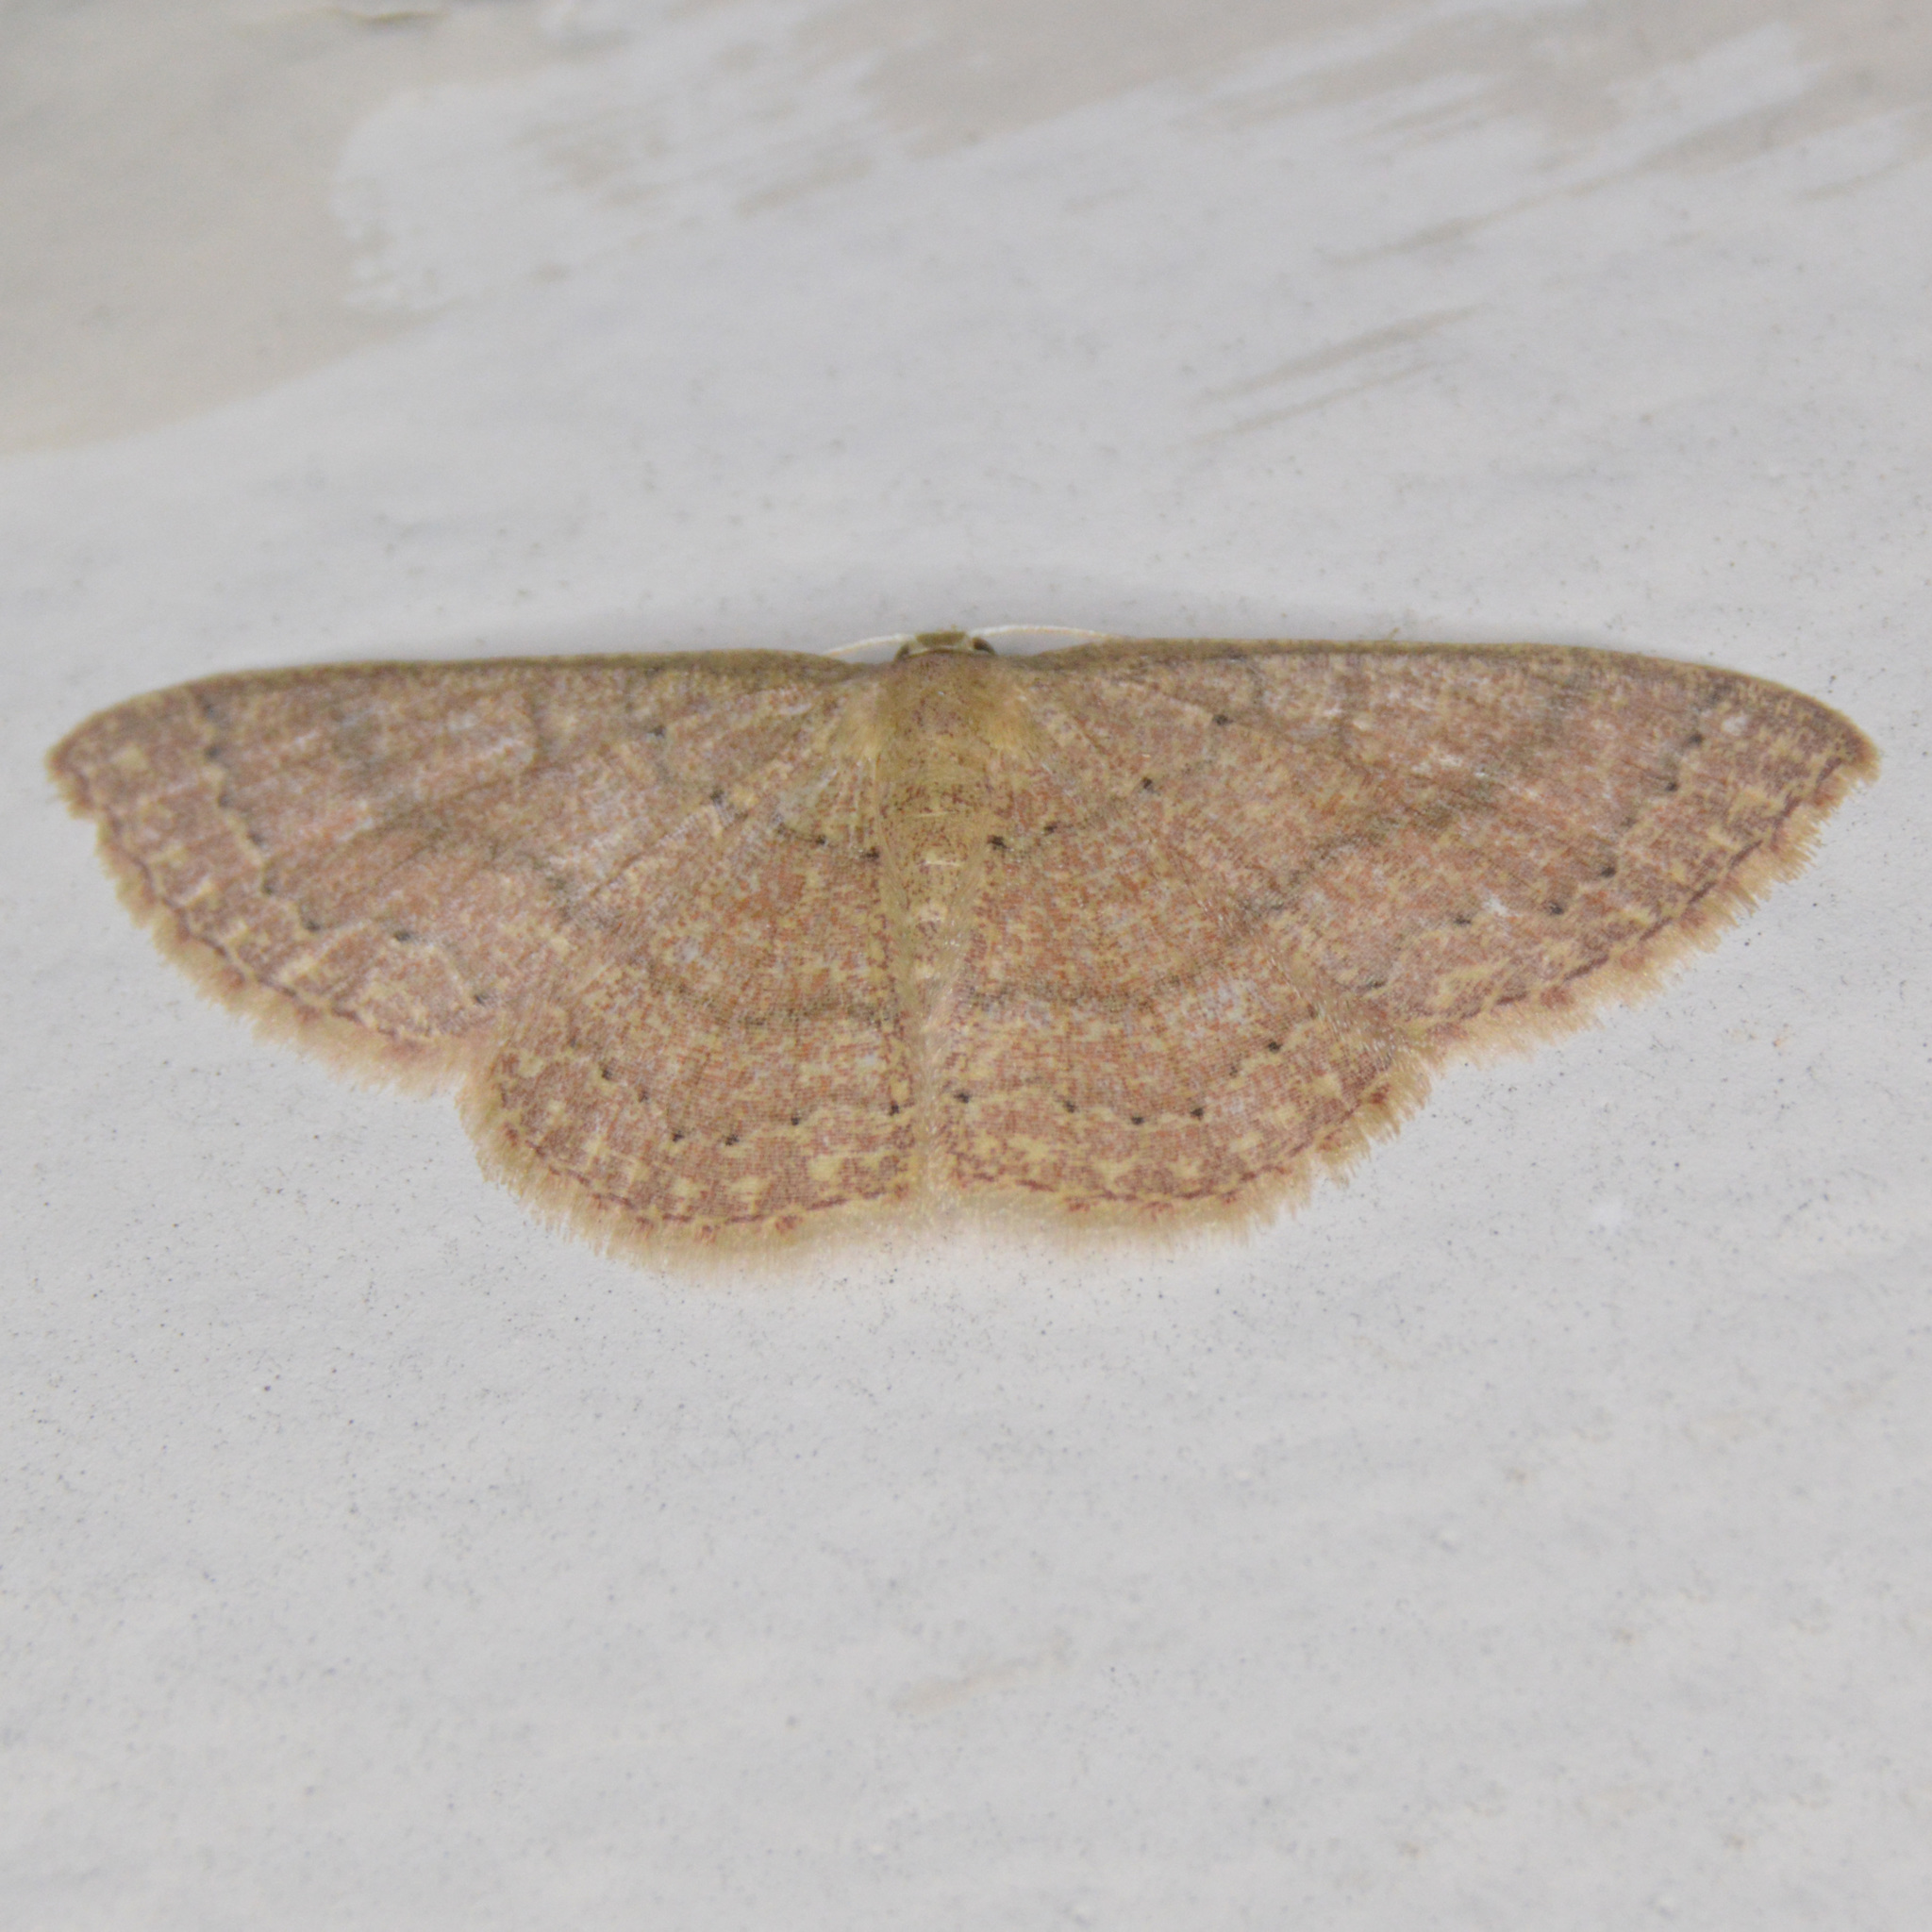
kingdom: Animalia
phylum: Arthropoda
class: Insecta
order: Lepidoptera
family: Geometridae
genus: Pleuroprucha
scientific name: Pleuroprucha insulsaria
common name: Common tan wave
